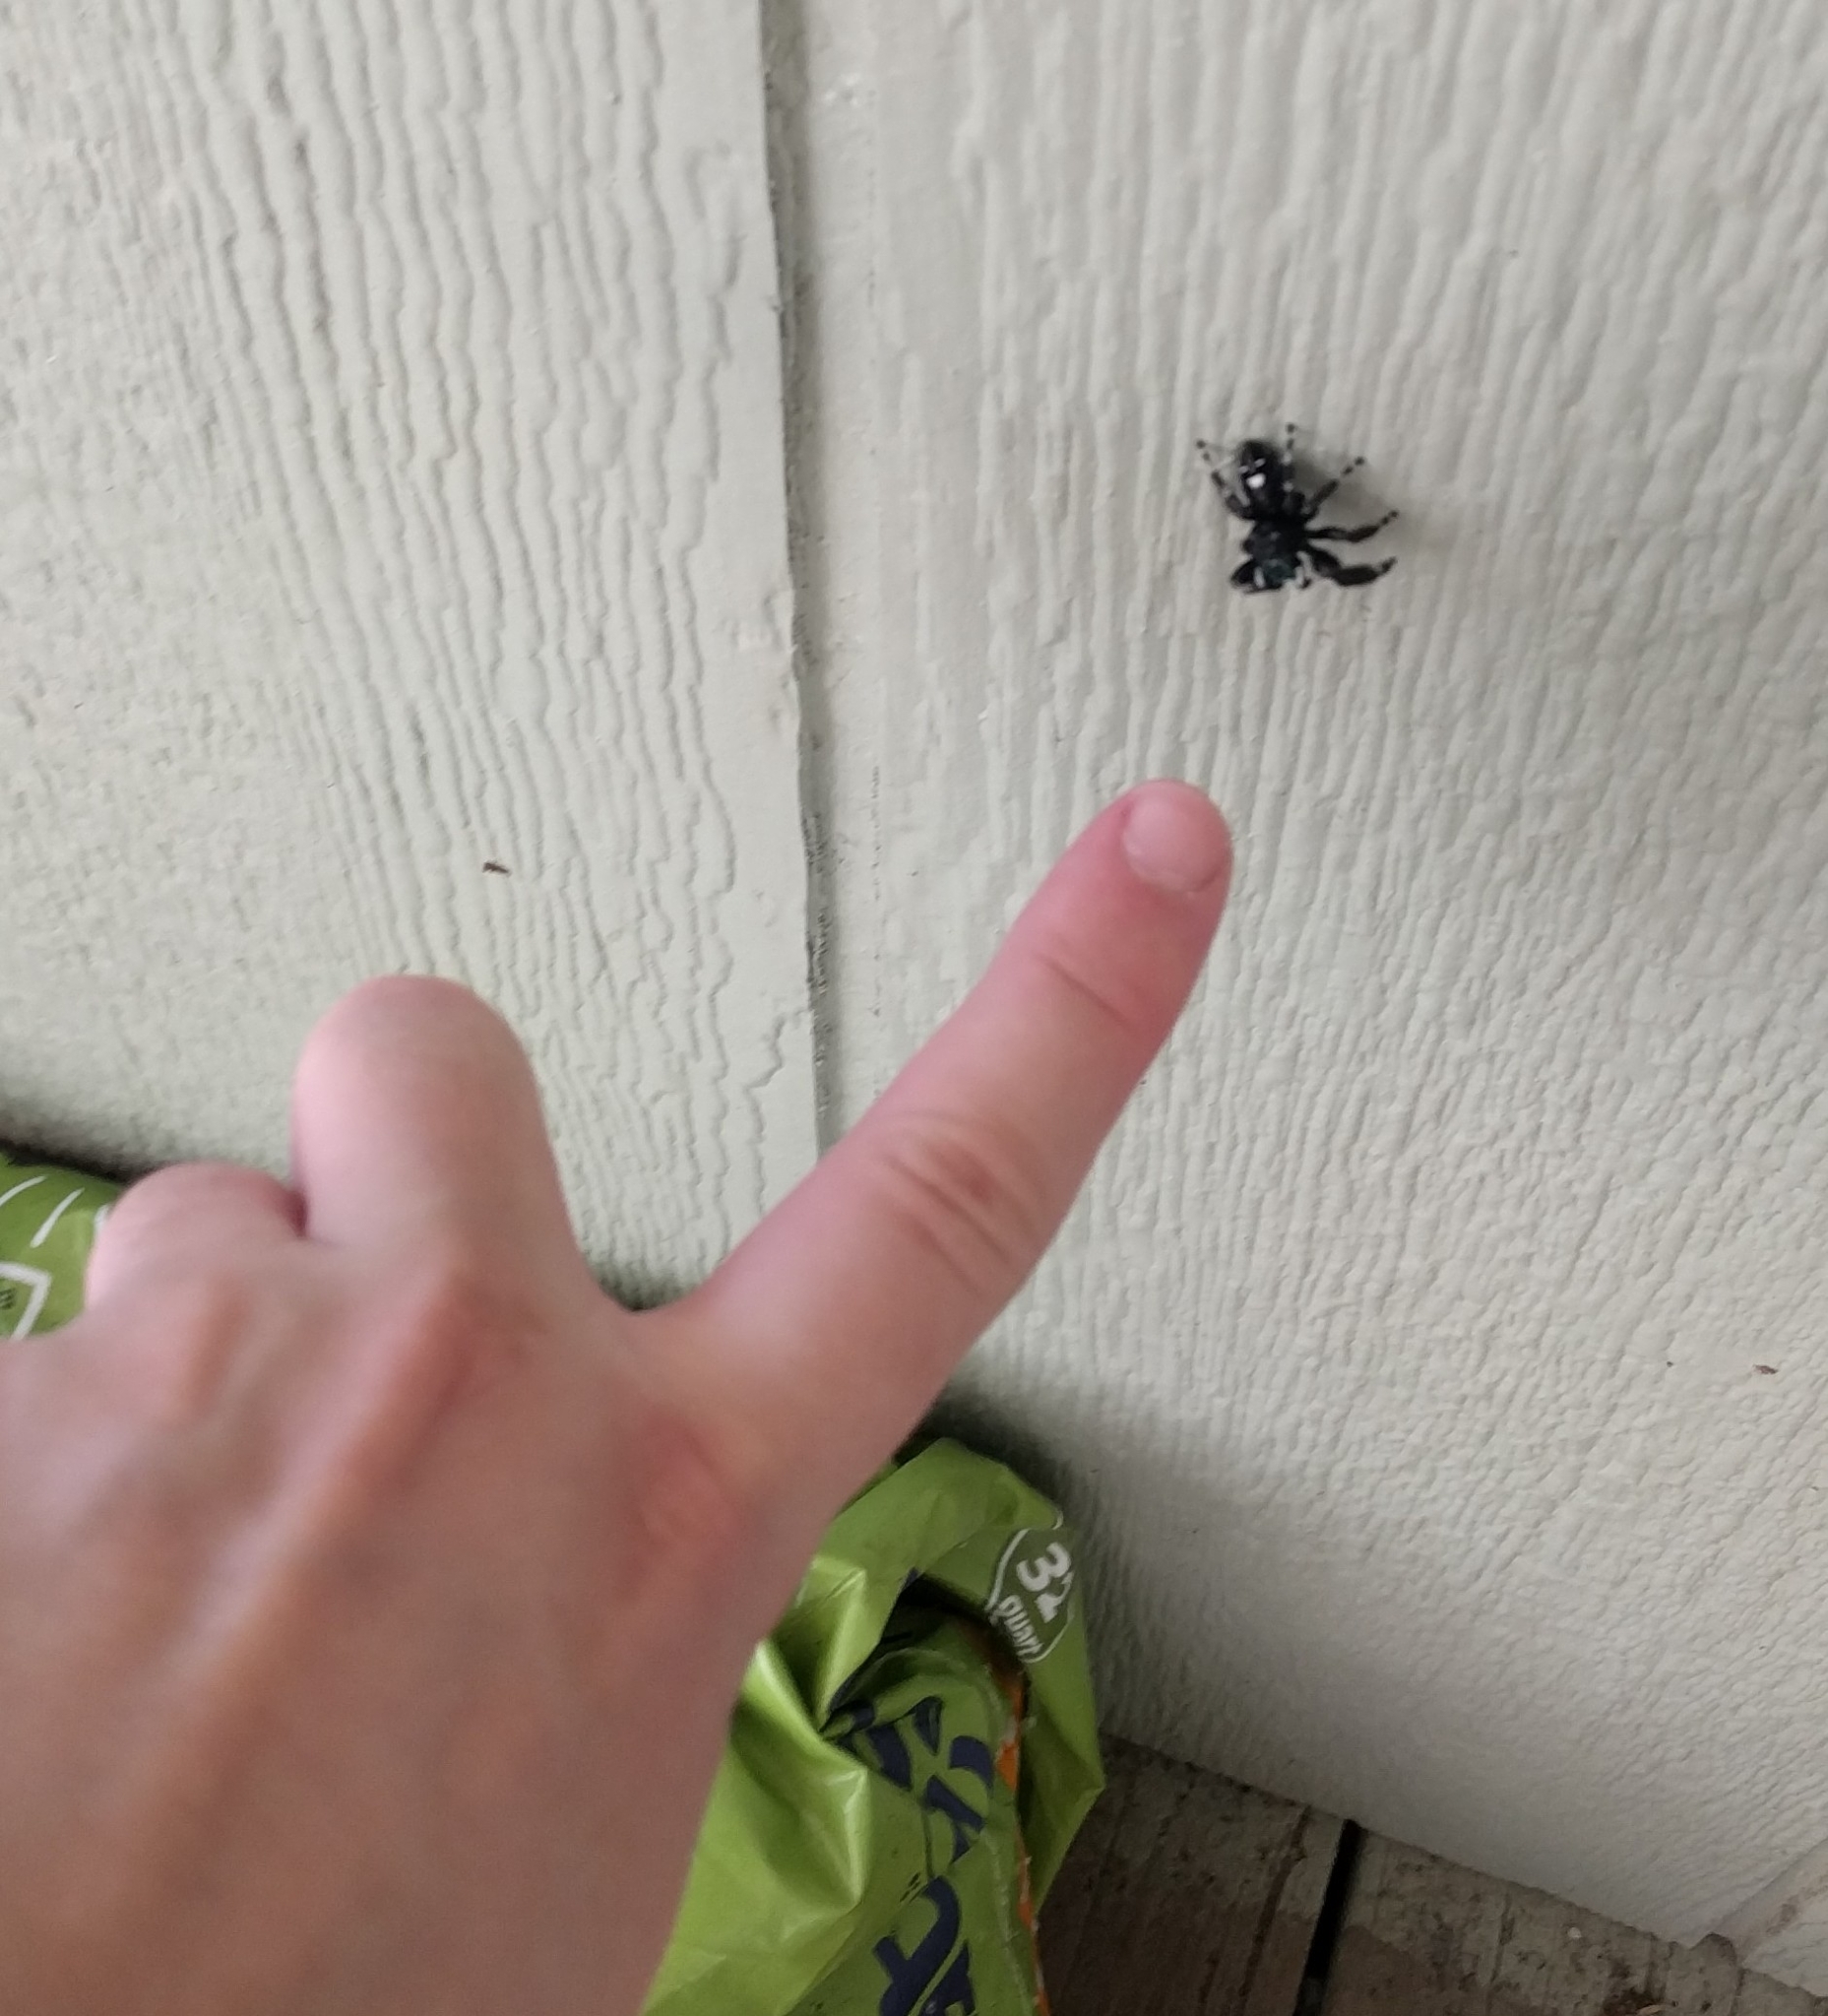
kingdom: Animalia
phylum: Arthropoda
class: Arachnida
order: Araneae
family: Salticidae
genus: Phidippus
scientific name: Phidippus audax
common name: Bold jumper
